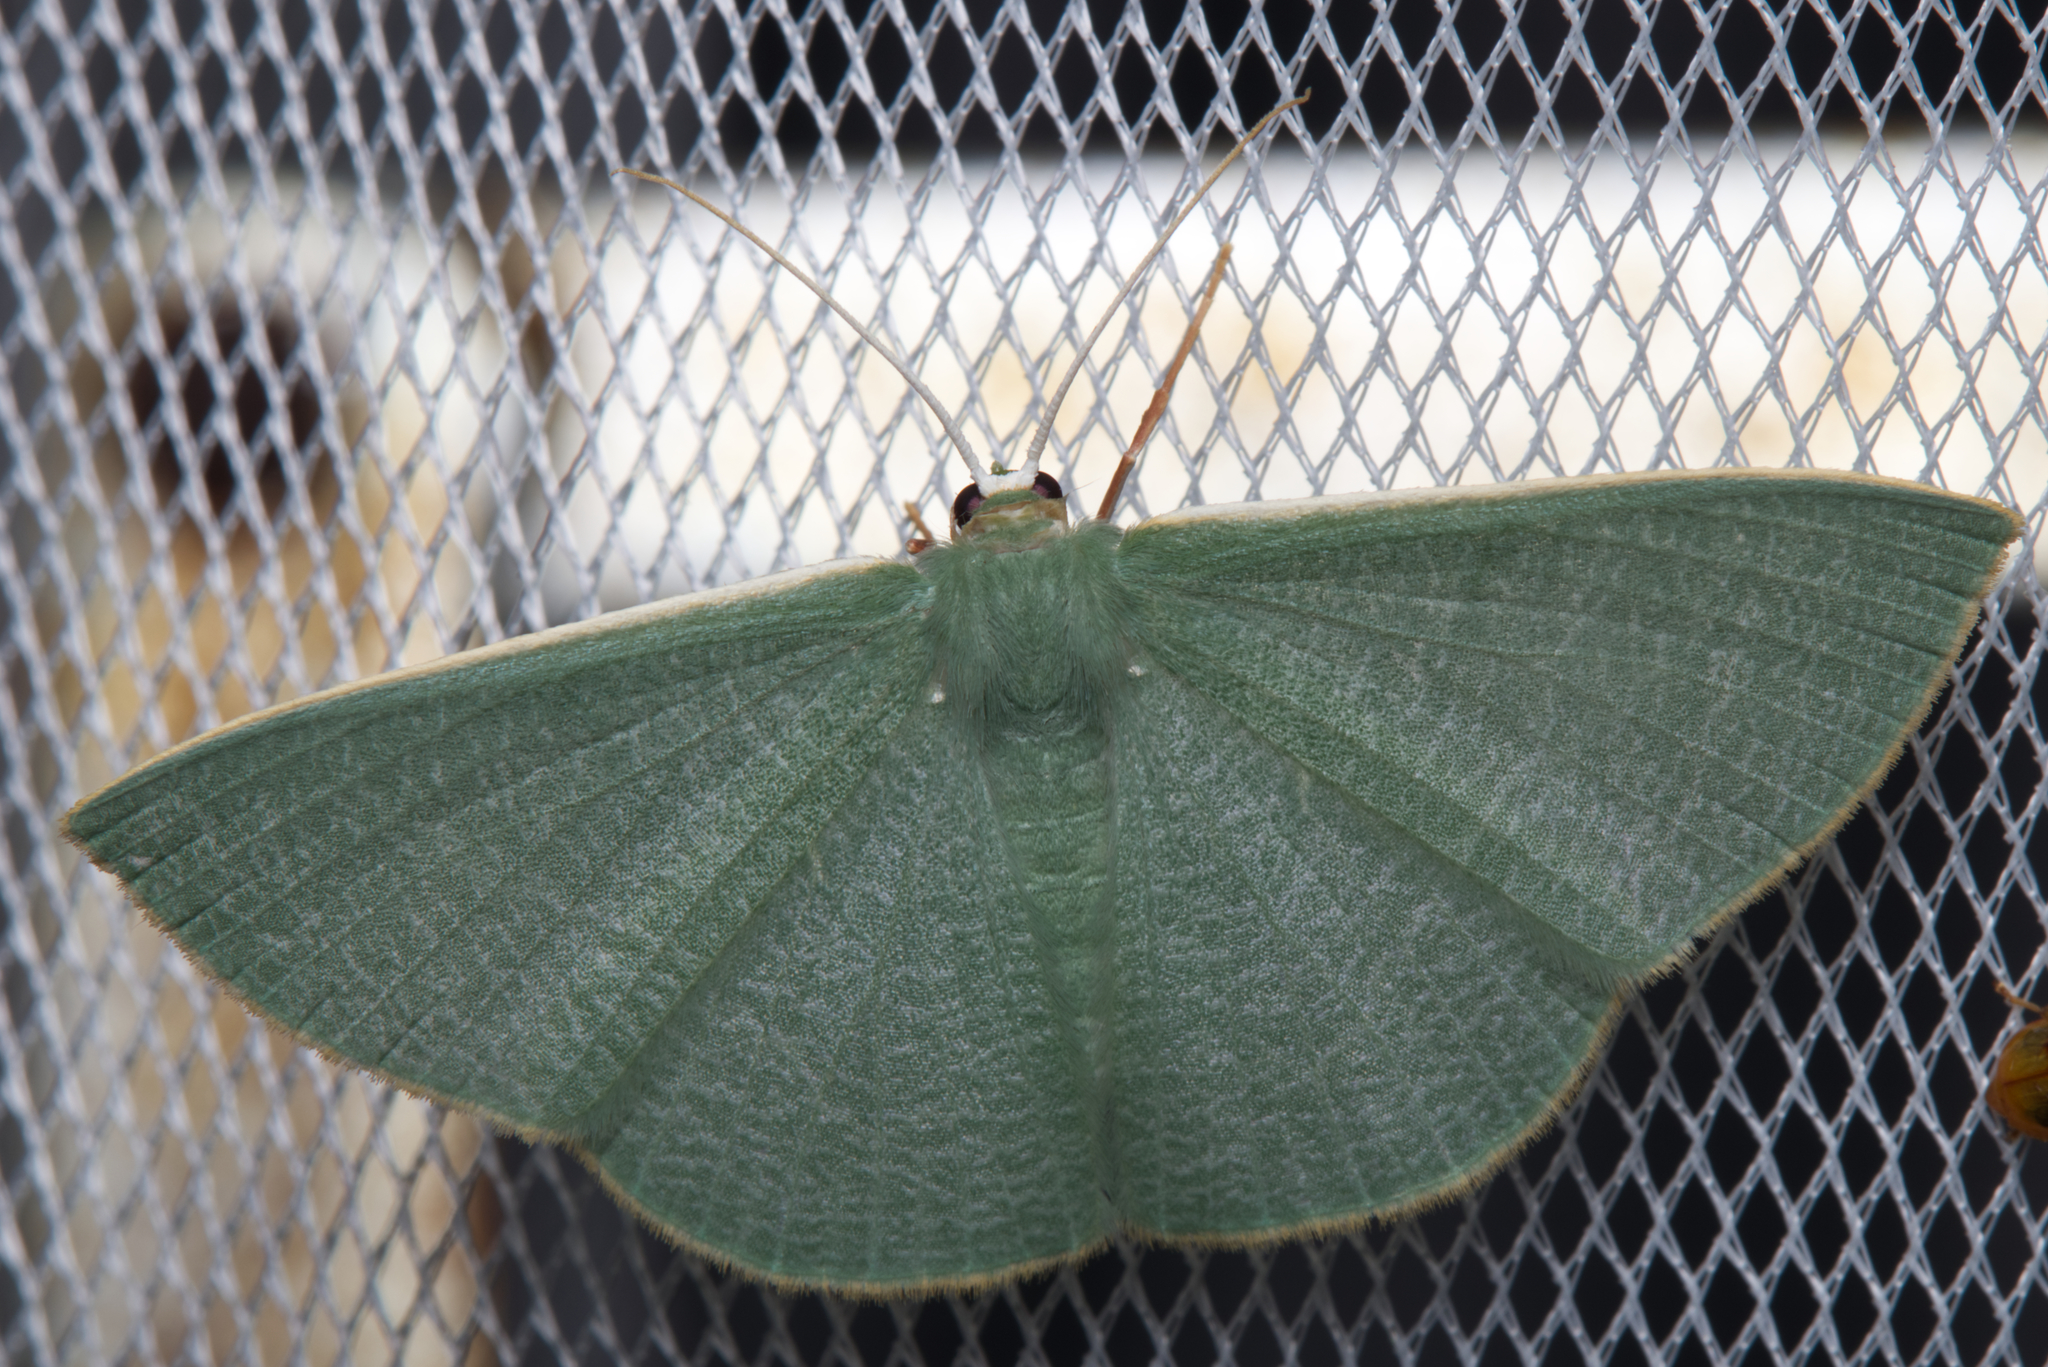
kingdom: Animalia
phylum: Arthropoda
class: Insecta
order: Lepidoptera
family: Geometridae
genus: Prasinocyma
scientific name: Prasinocyma albicosta
